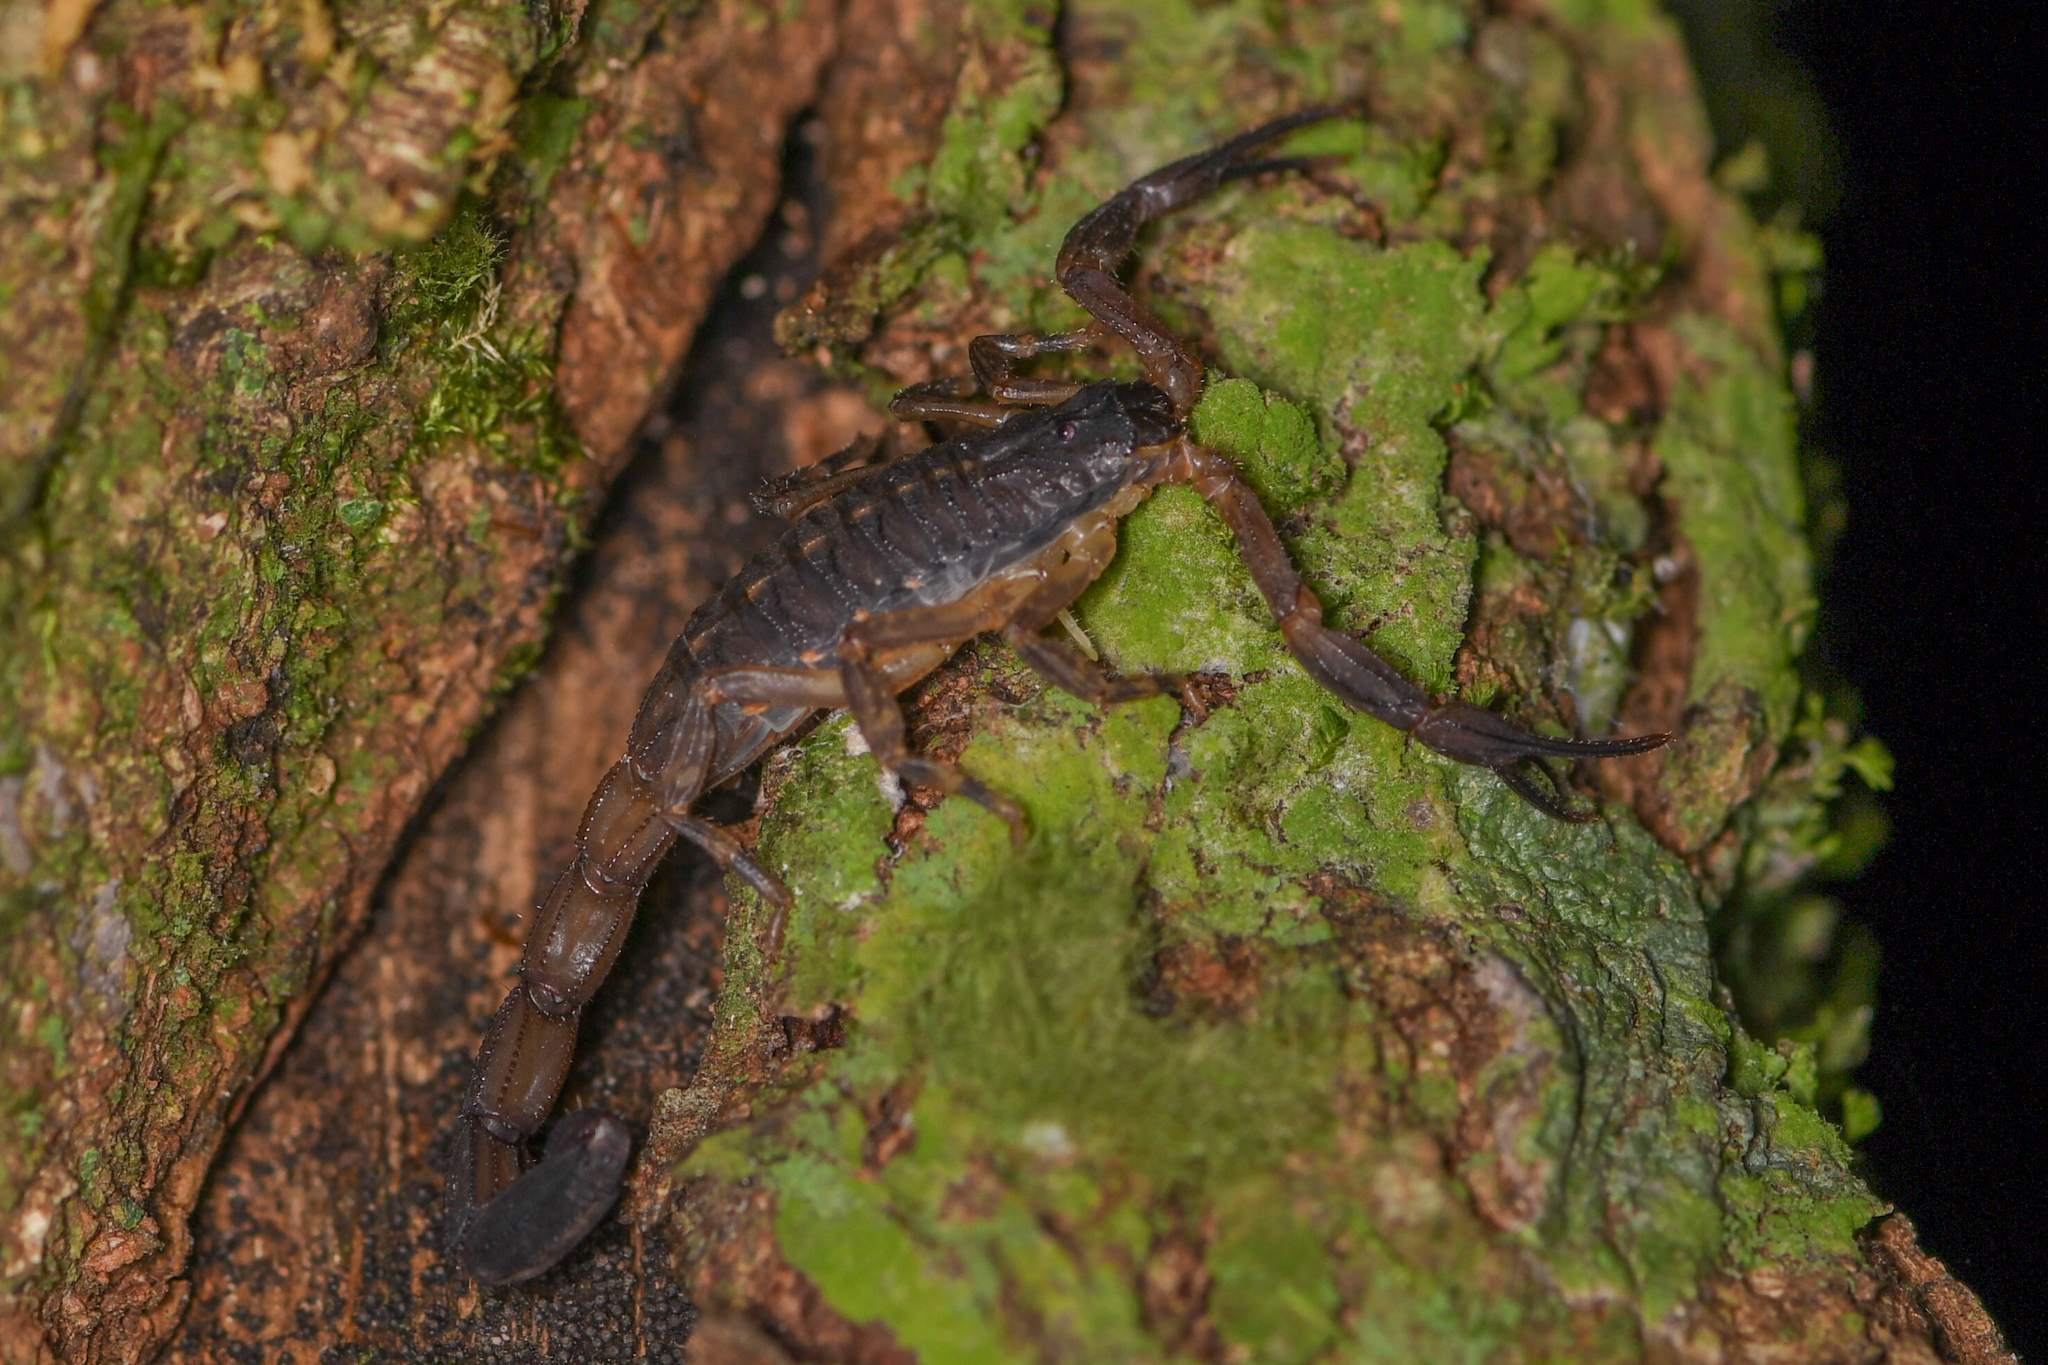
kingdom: Animalia
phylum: Arthropoda
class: Arachnida
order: Scorpiones
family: Buthidae
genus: Centruroides
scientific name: Centruroides limbatus
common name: Scorpions
